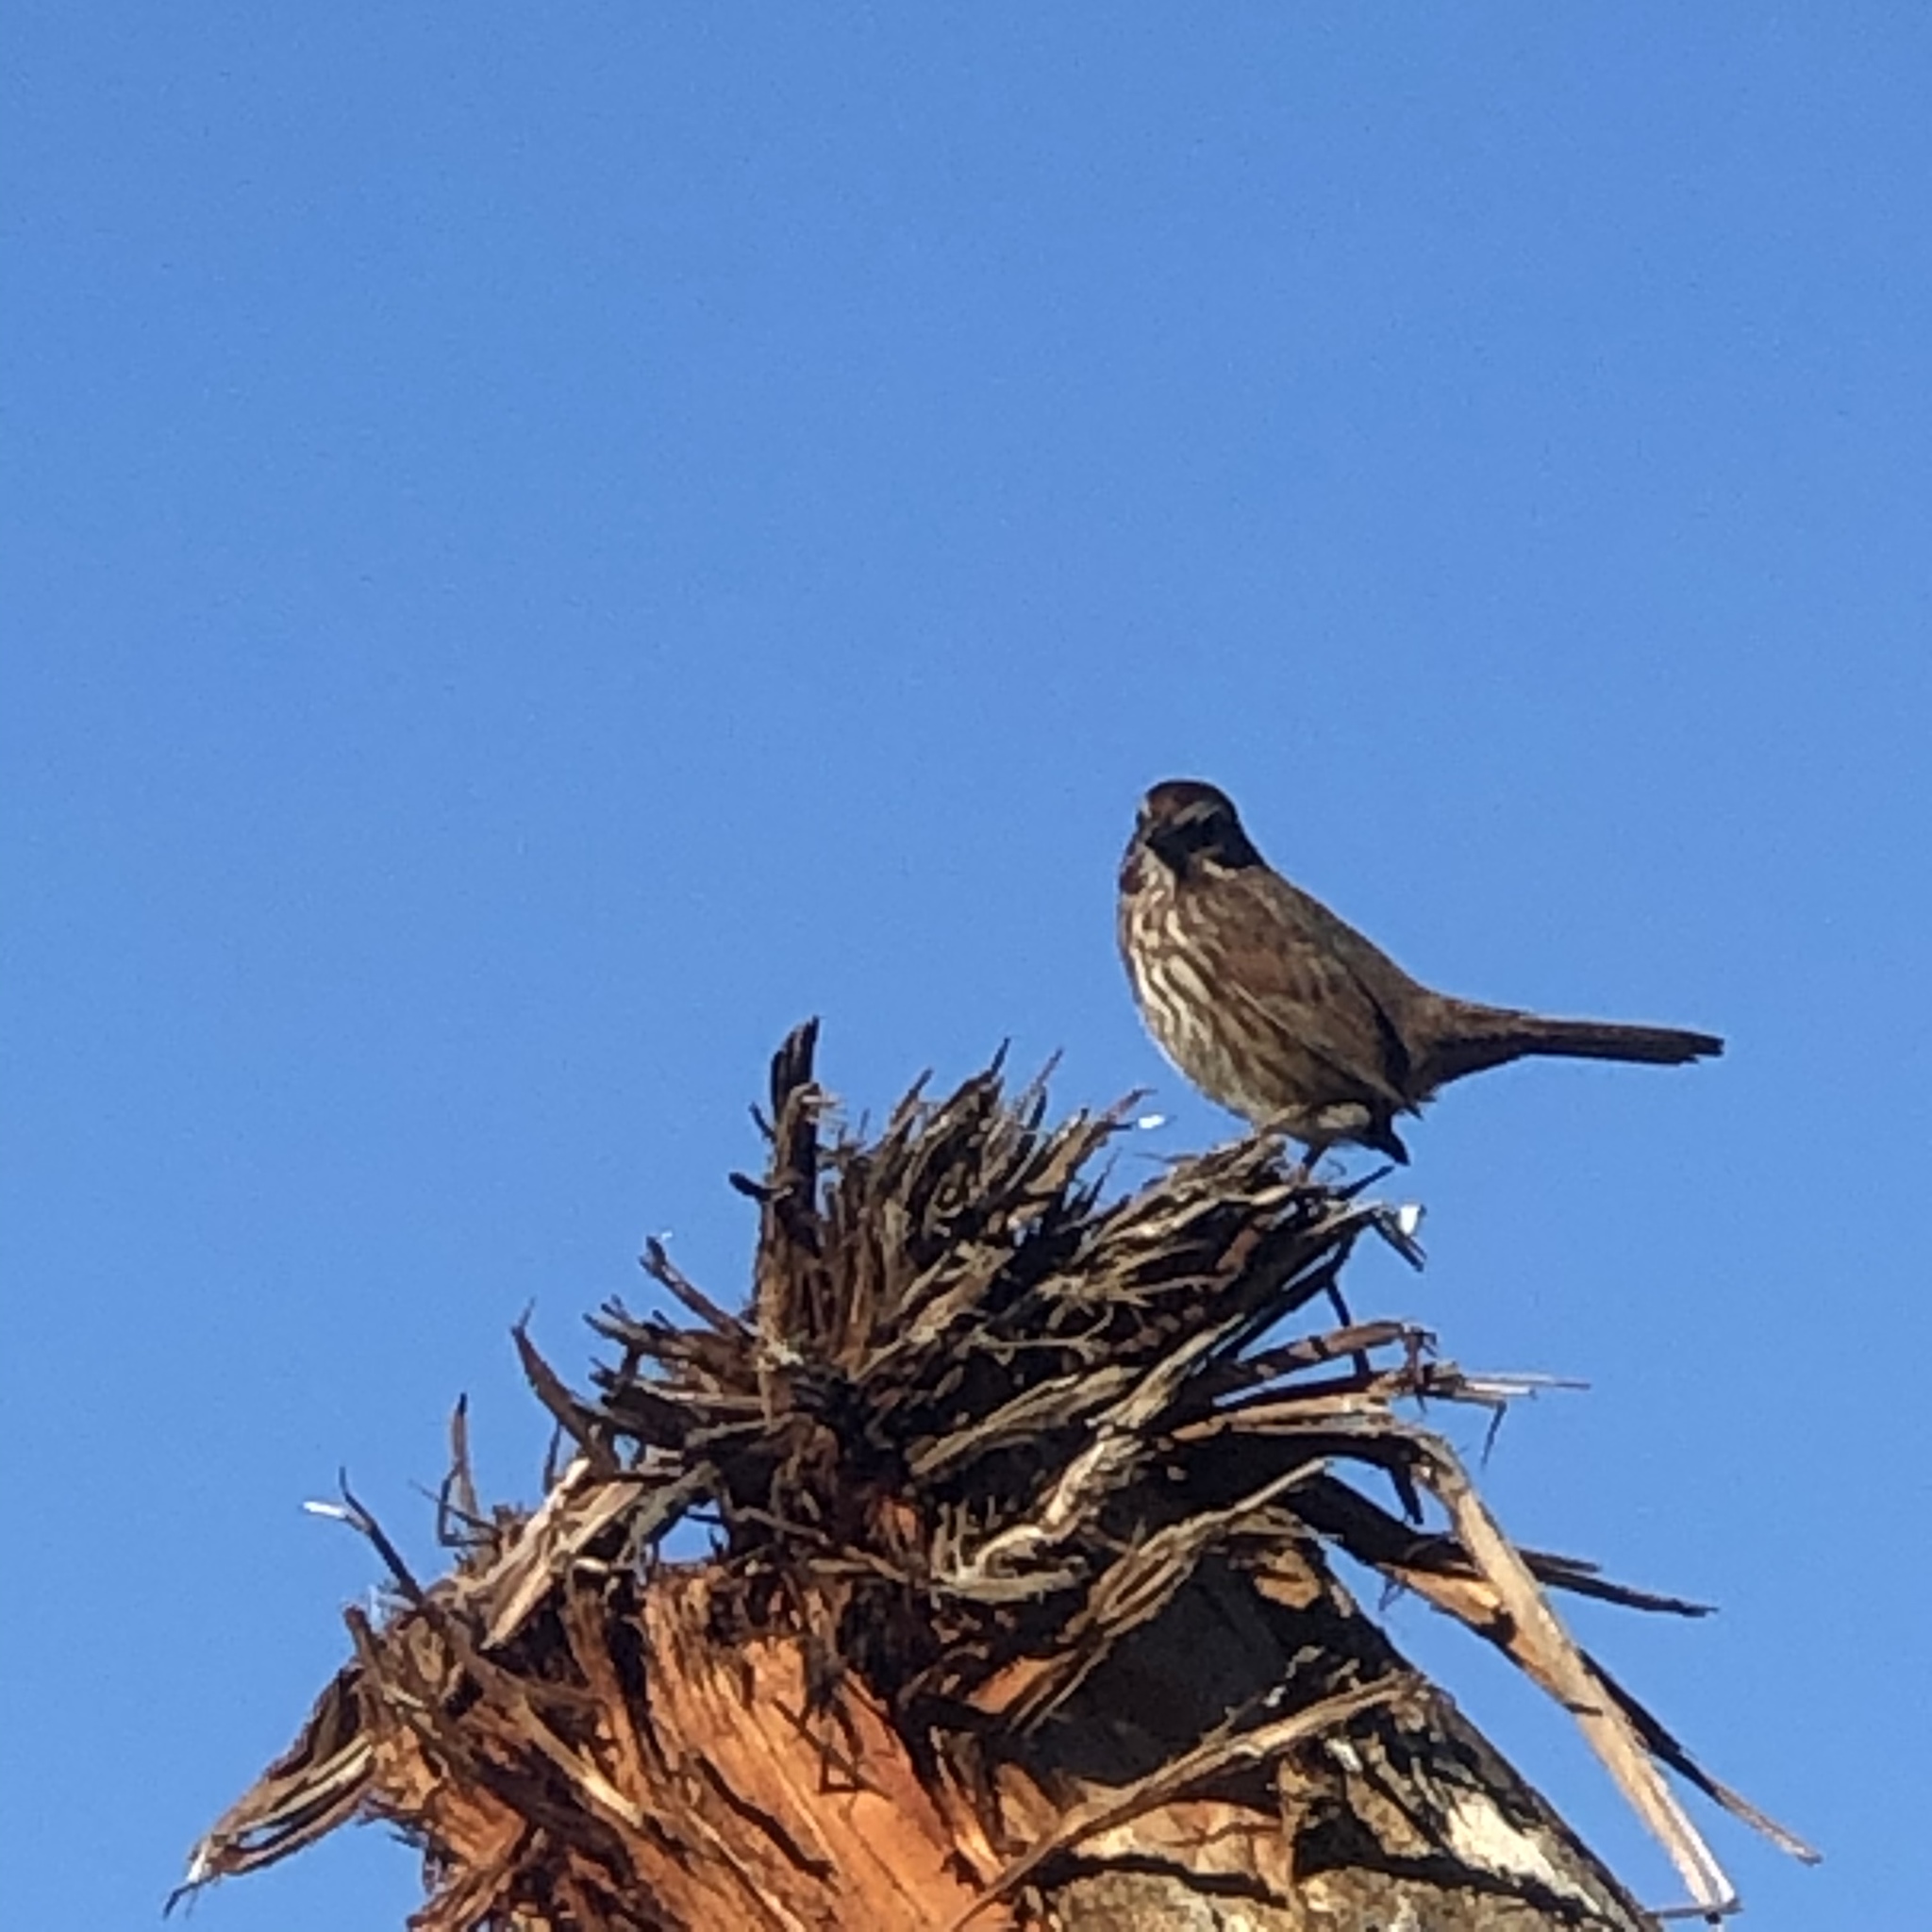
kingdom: Animalia
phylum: Chordata
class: Aves
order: Passeriformes
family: Passerellidae
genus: Melospiza
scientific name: Melospiza melodia
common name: Song sparrow
